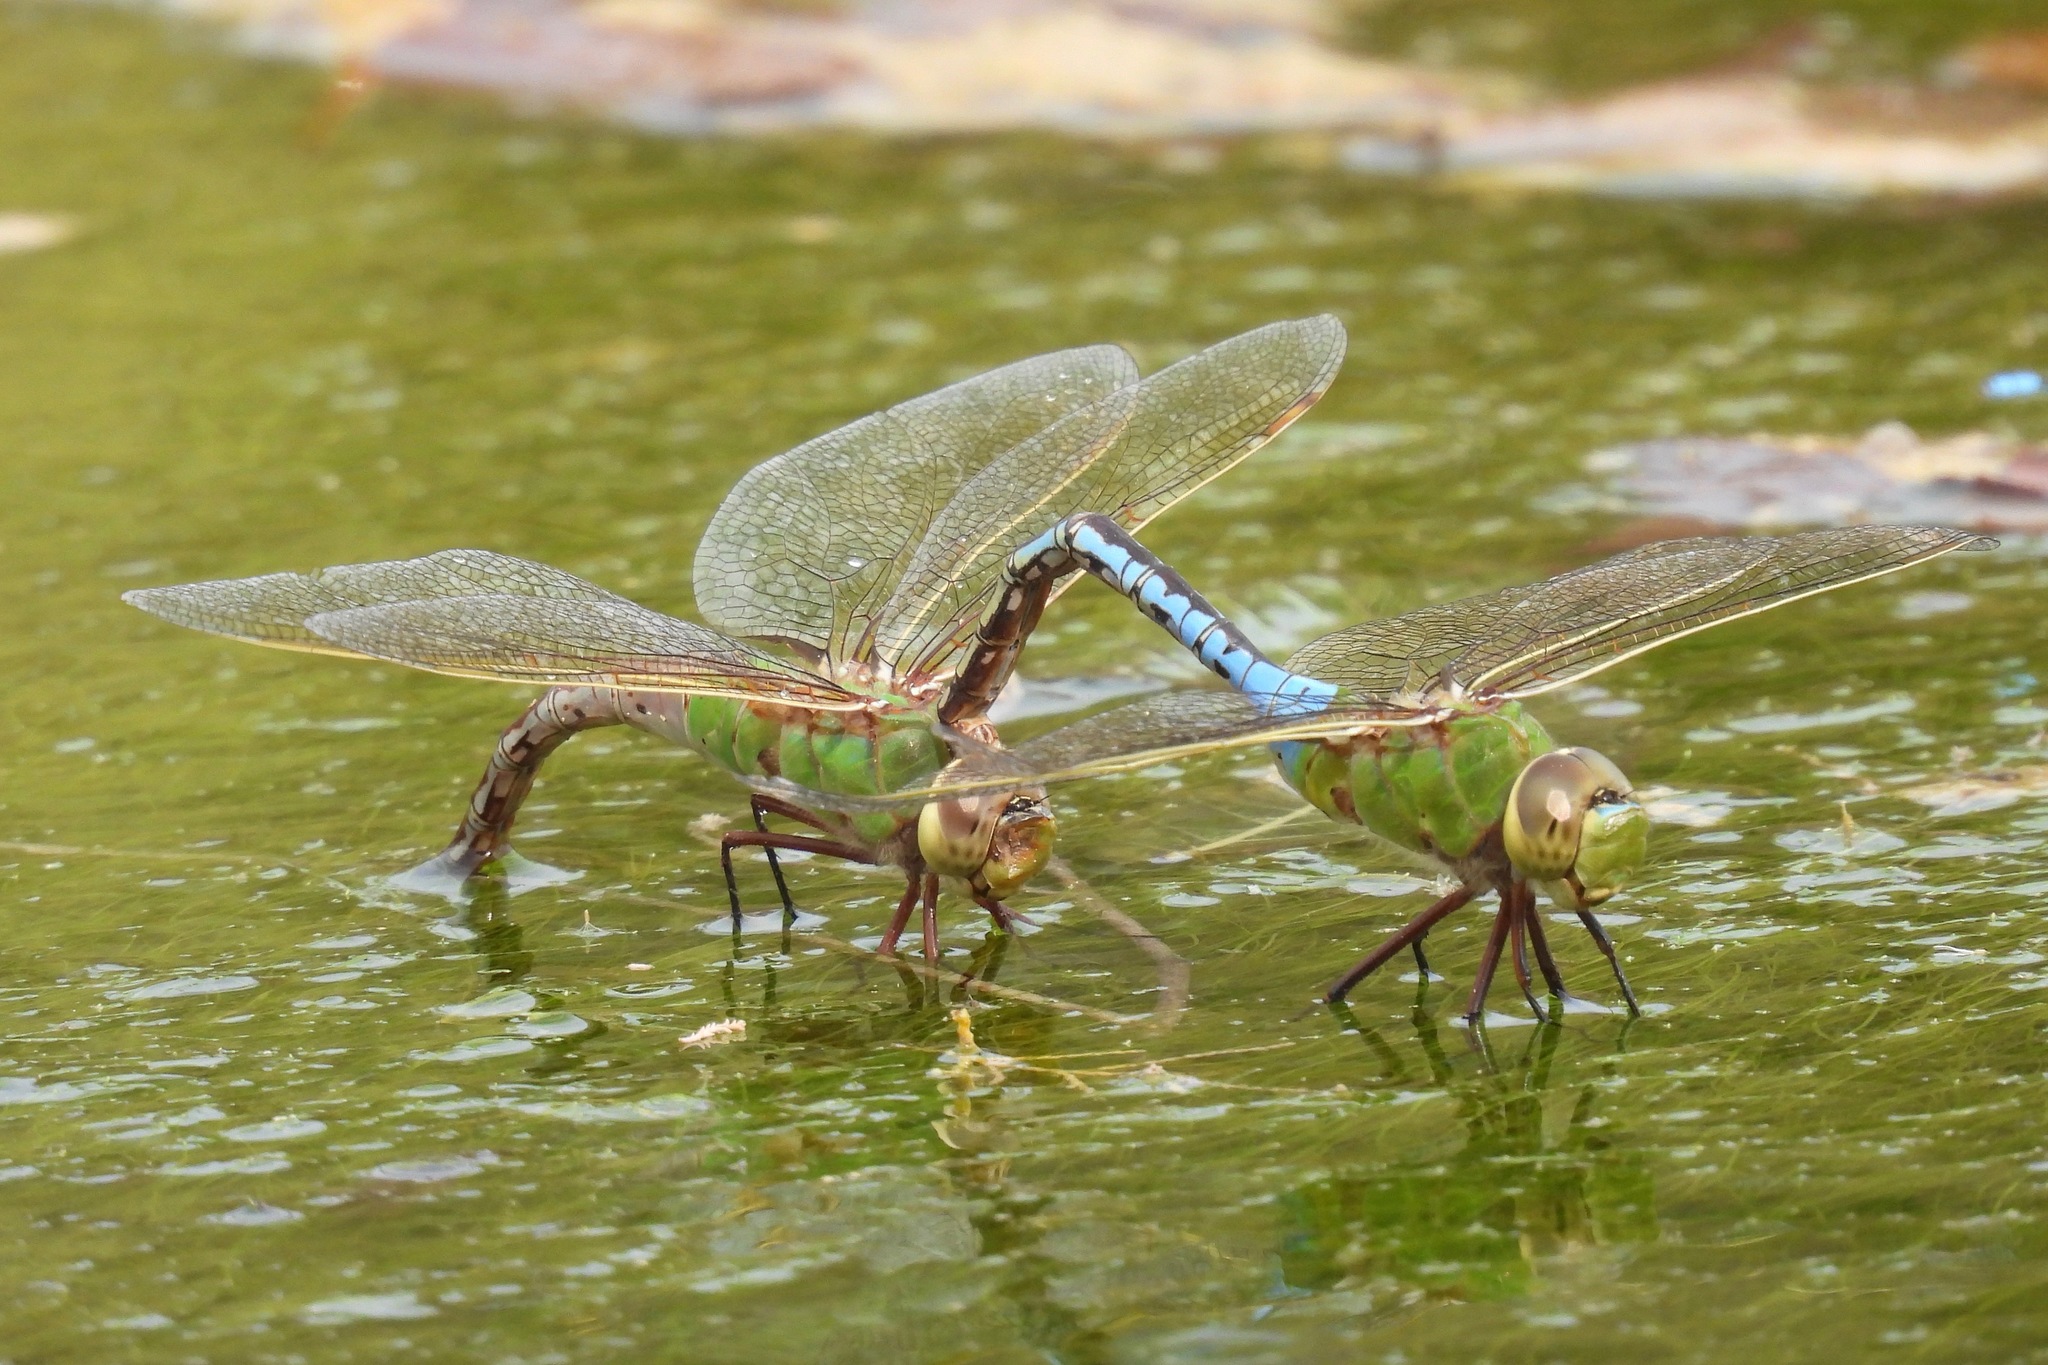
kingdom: Animalia
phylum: Arthropoda
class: Insecta
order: Odonata
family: Aeshnidae
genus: Anax
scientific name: Anax junius
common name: Common green darner
